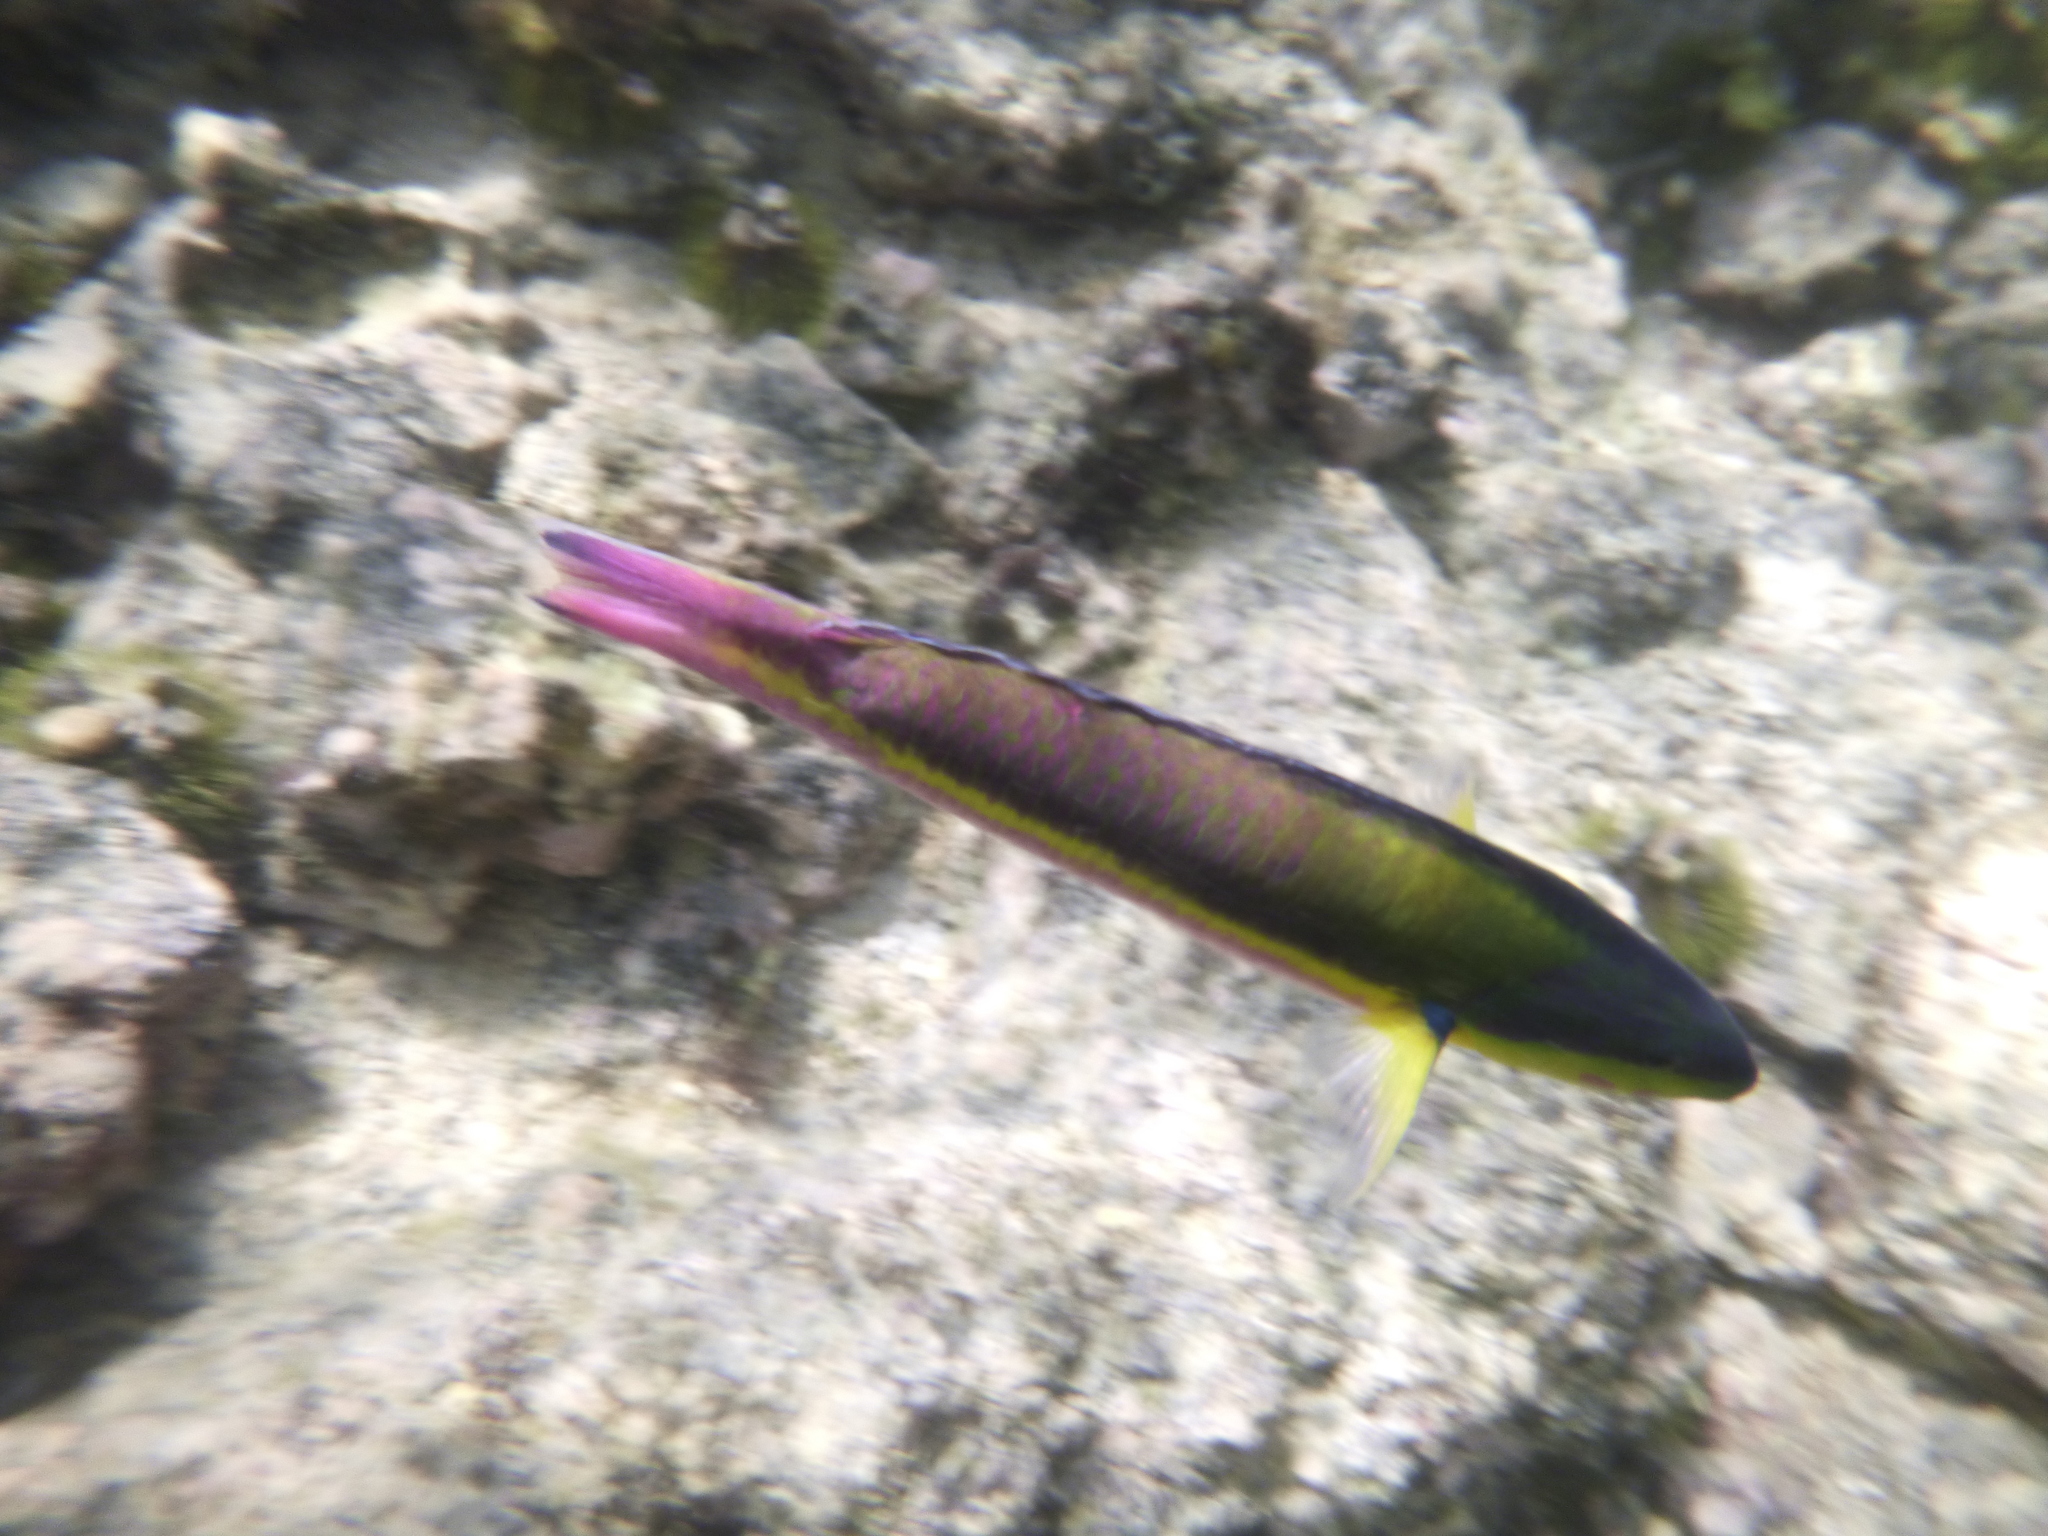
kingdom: Animalia
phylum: Chordata
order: Perciformes
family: Labridae
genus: Thalassoma
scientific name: Thalassoma lucasanum
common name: Cortez rainbow wrasse
